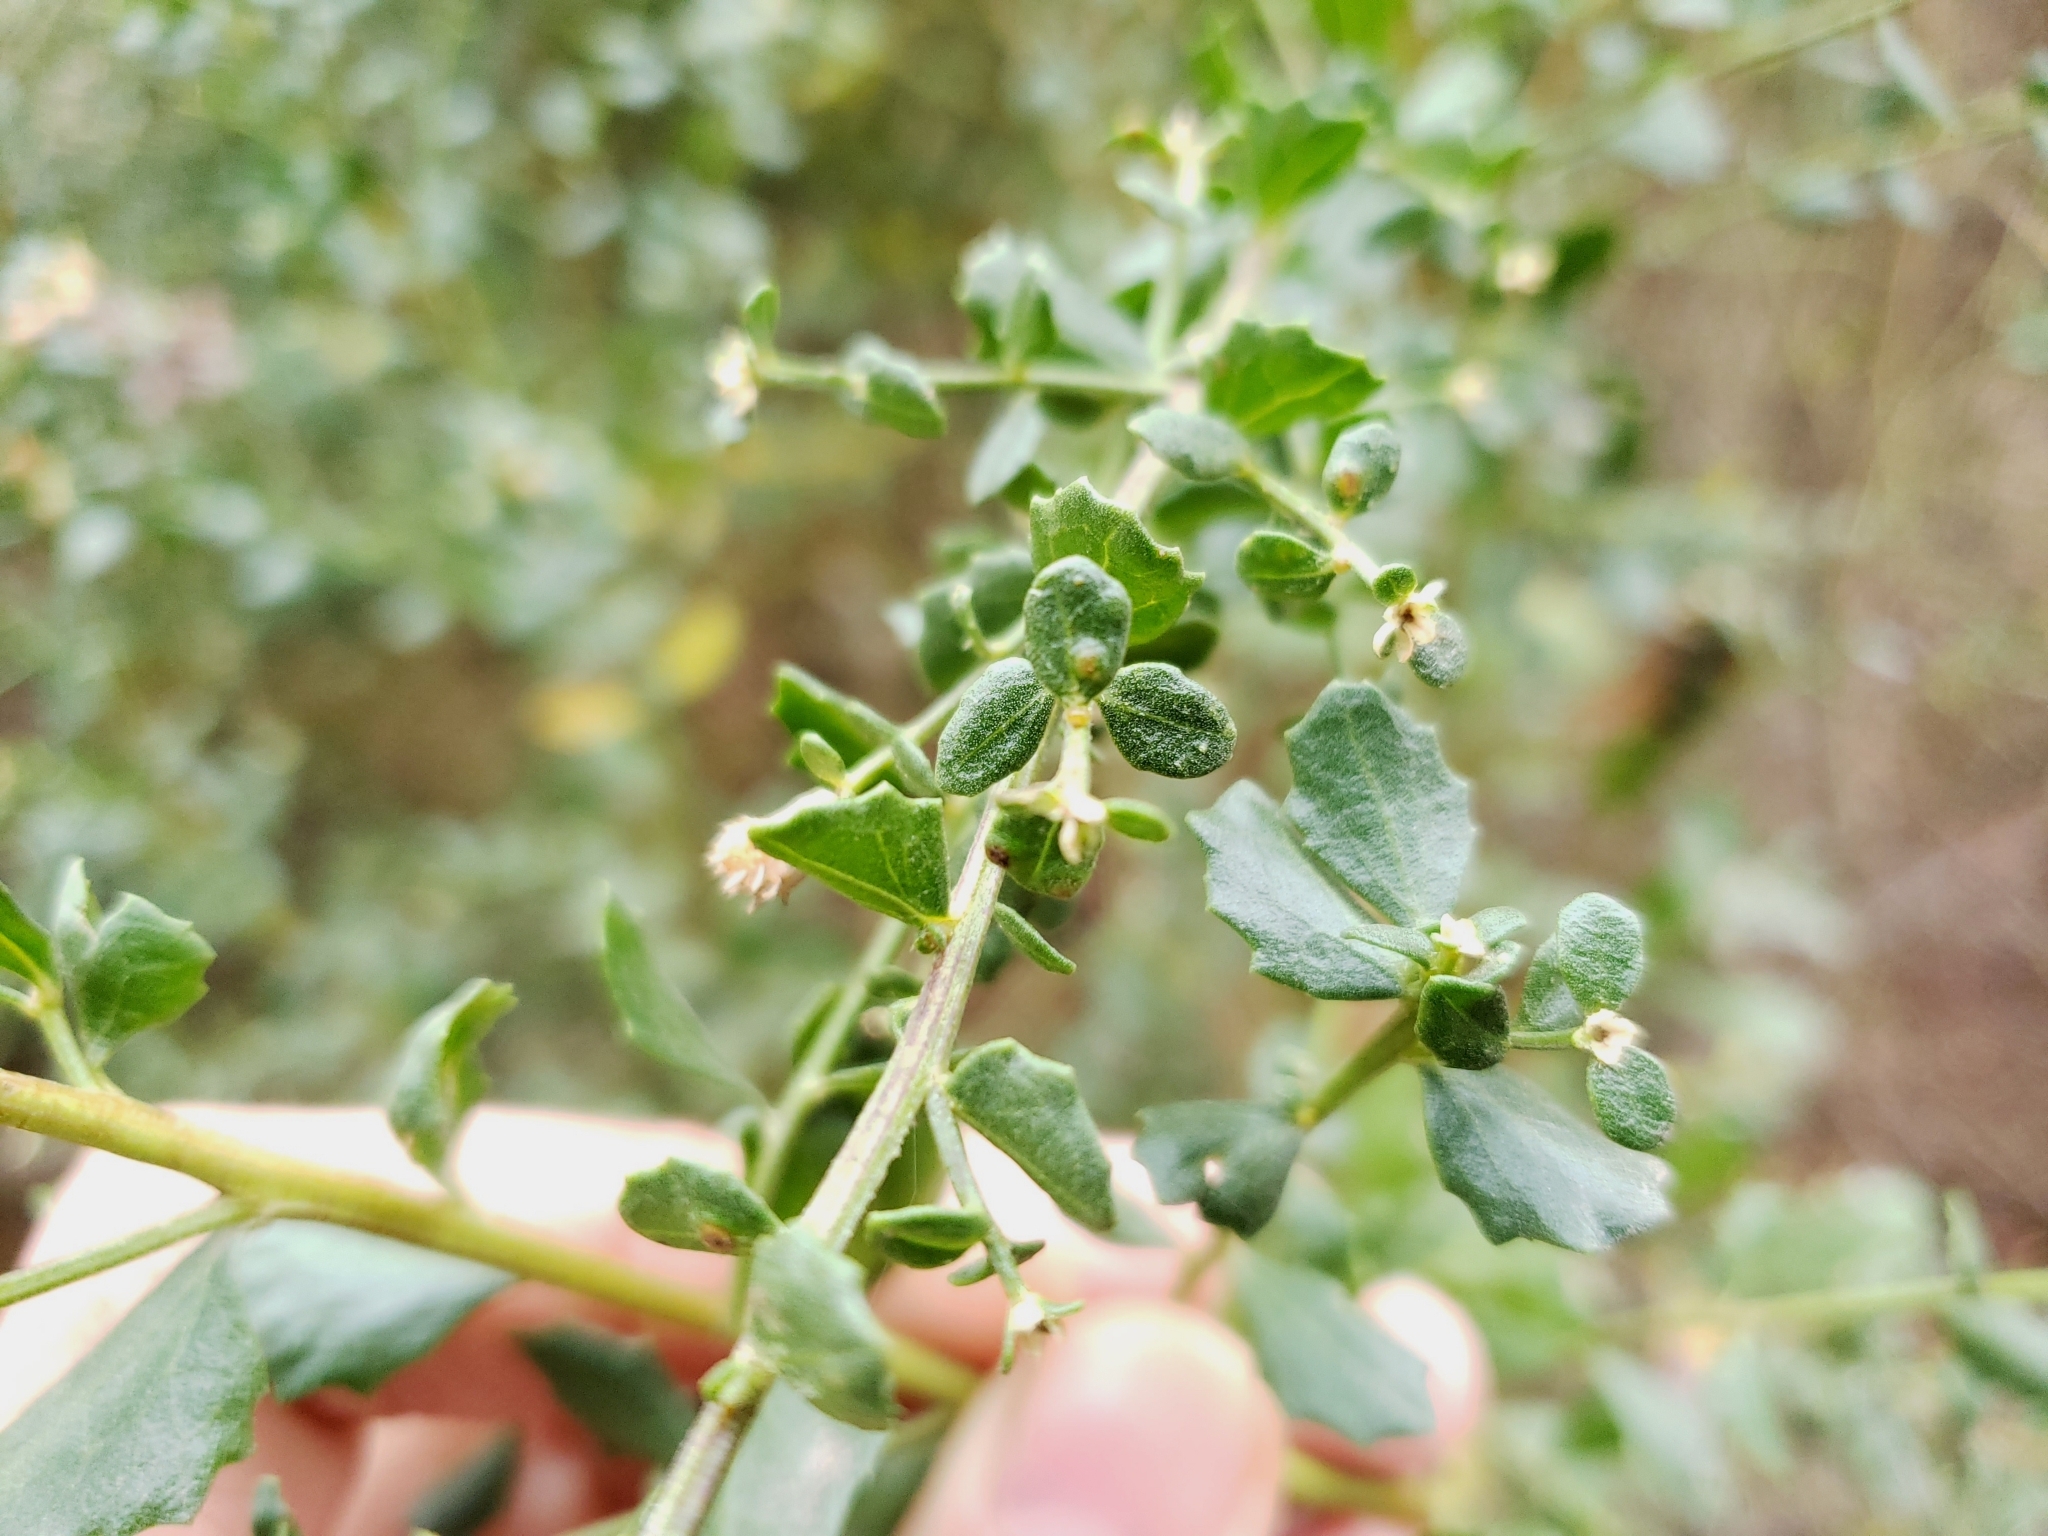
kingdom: Plantae
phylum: Tracheophyta
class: Magnoliopsida
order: Asterales
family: Asteraceae
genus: Baccharis
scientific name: Baccharis pilularis
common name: Coyotebrush
